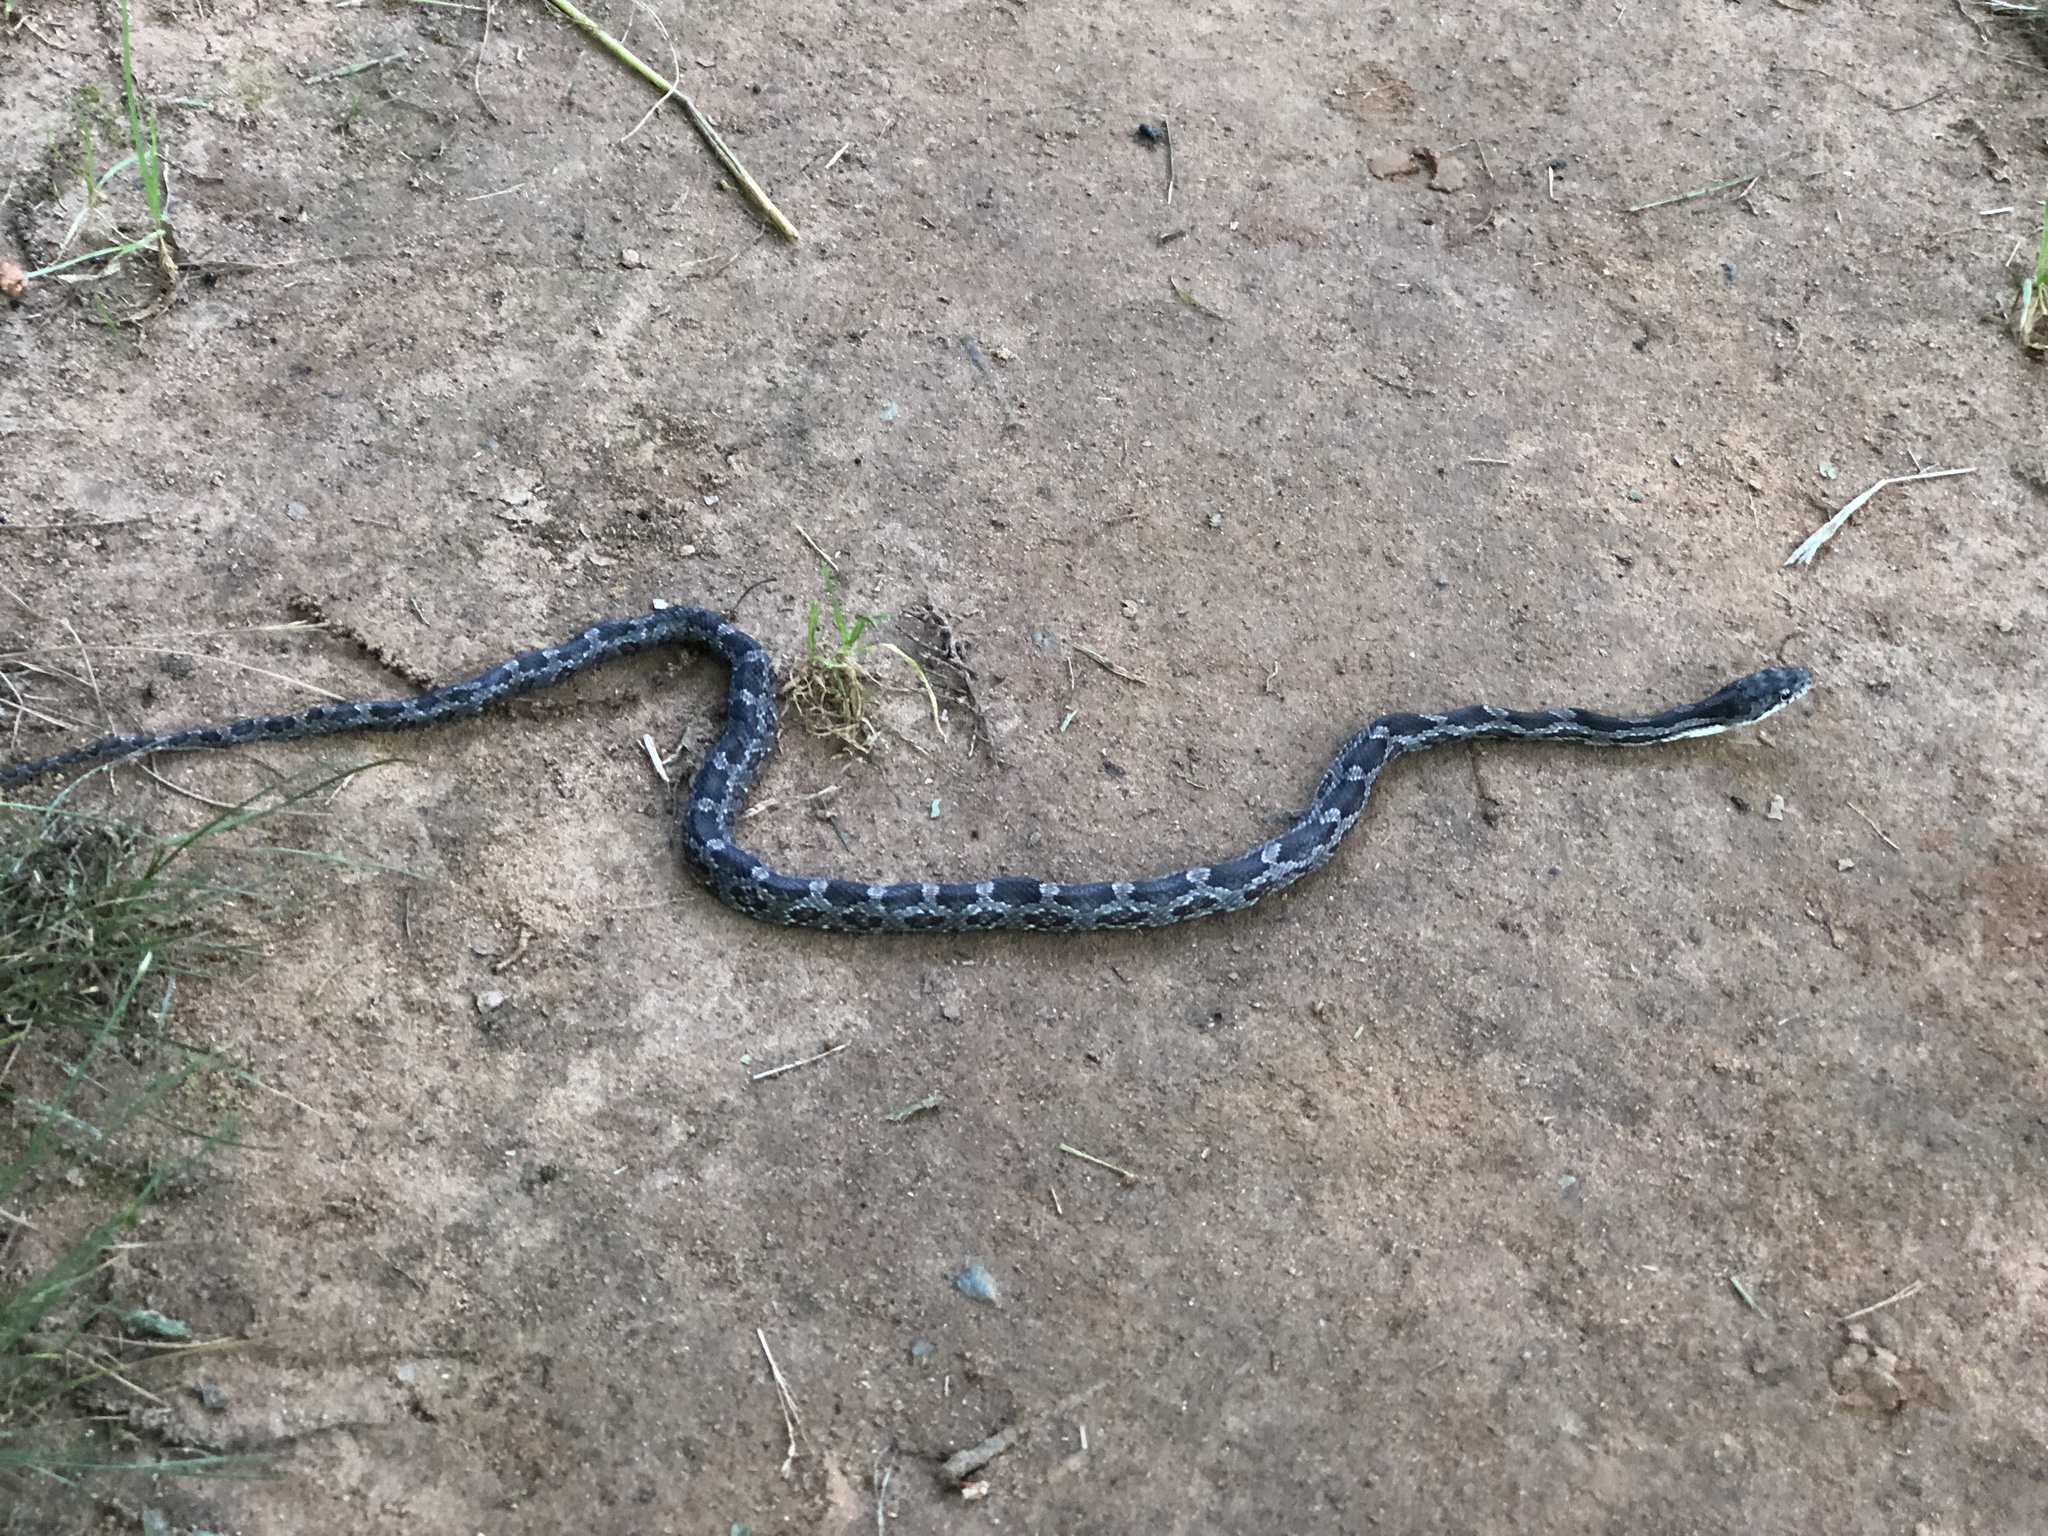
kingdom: Animalia
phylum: Chordata
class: Squamata
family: Colubridae
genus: Pantherophis
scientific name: Pantherophis alleghaniensis
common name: Eastern rat snake
